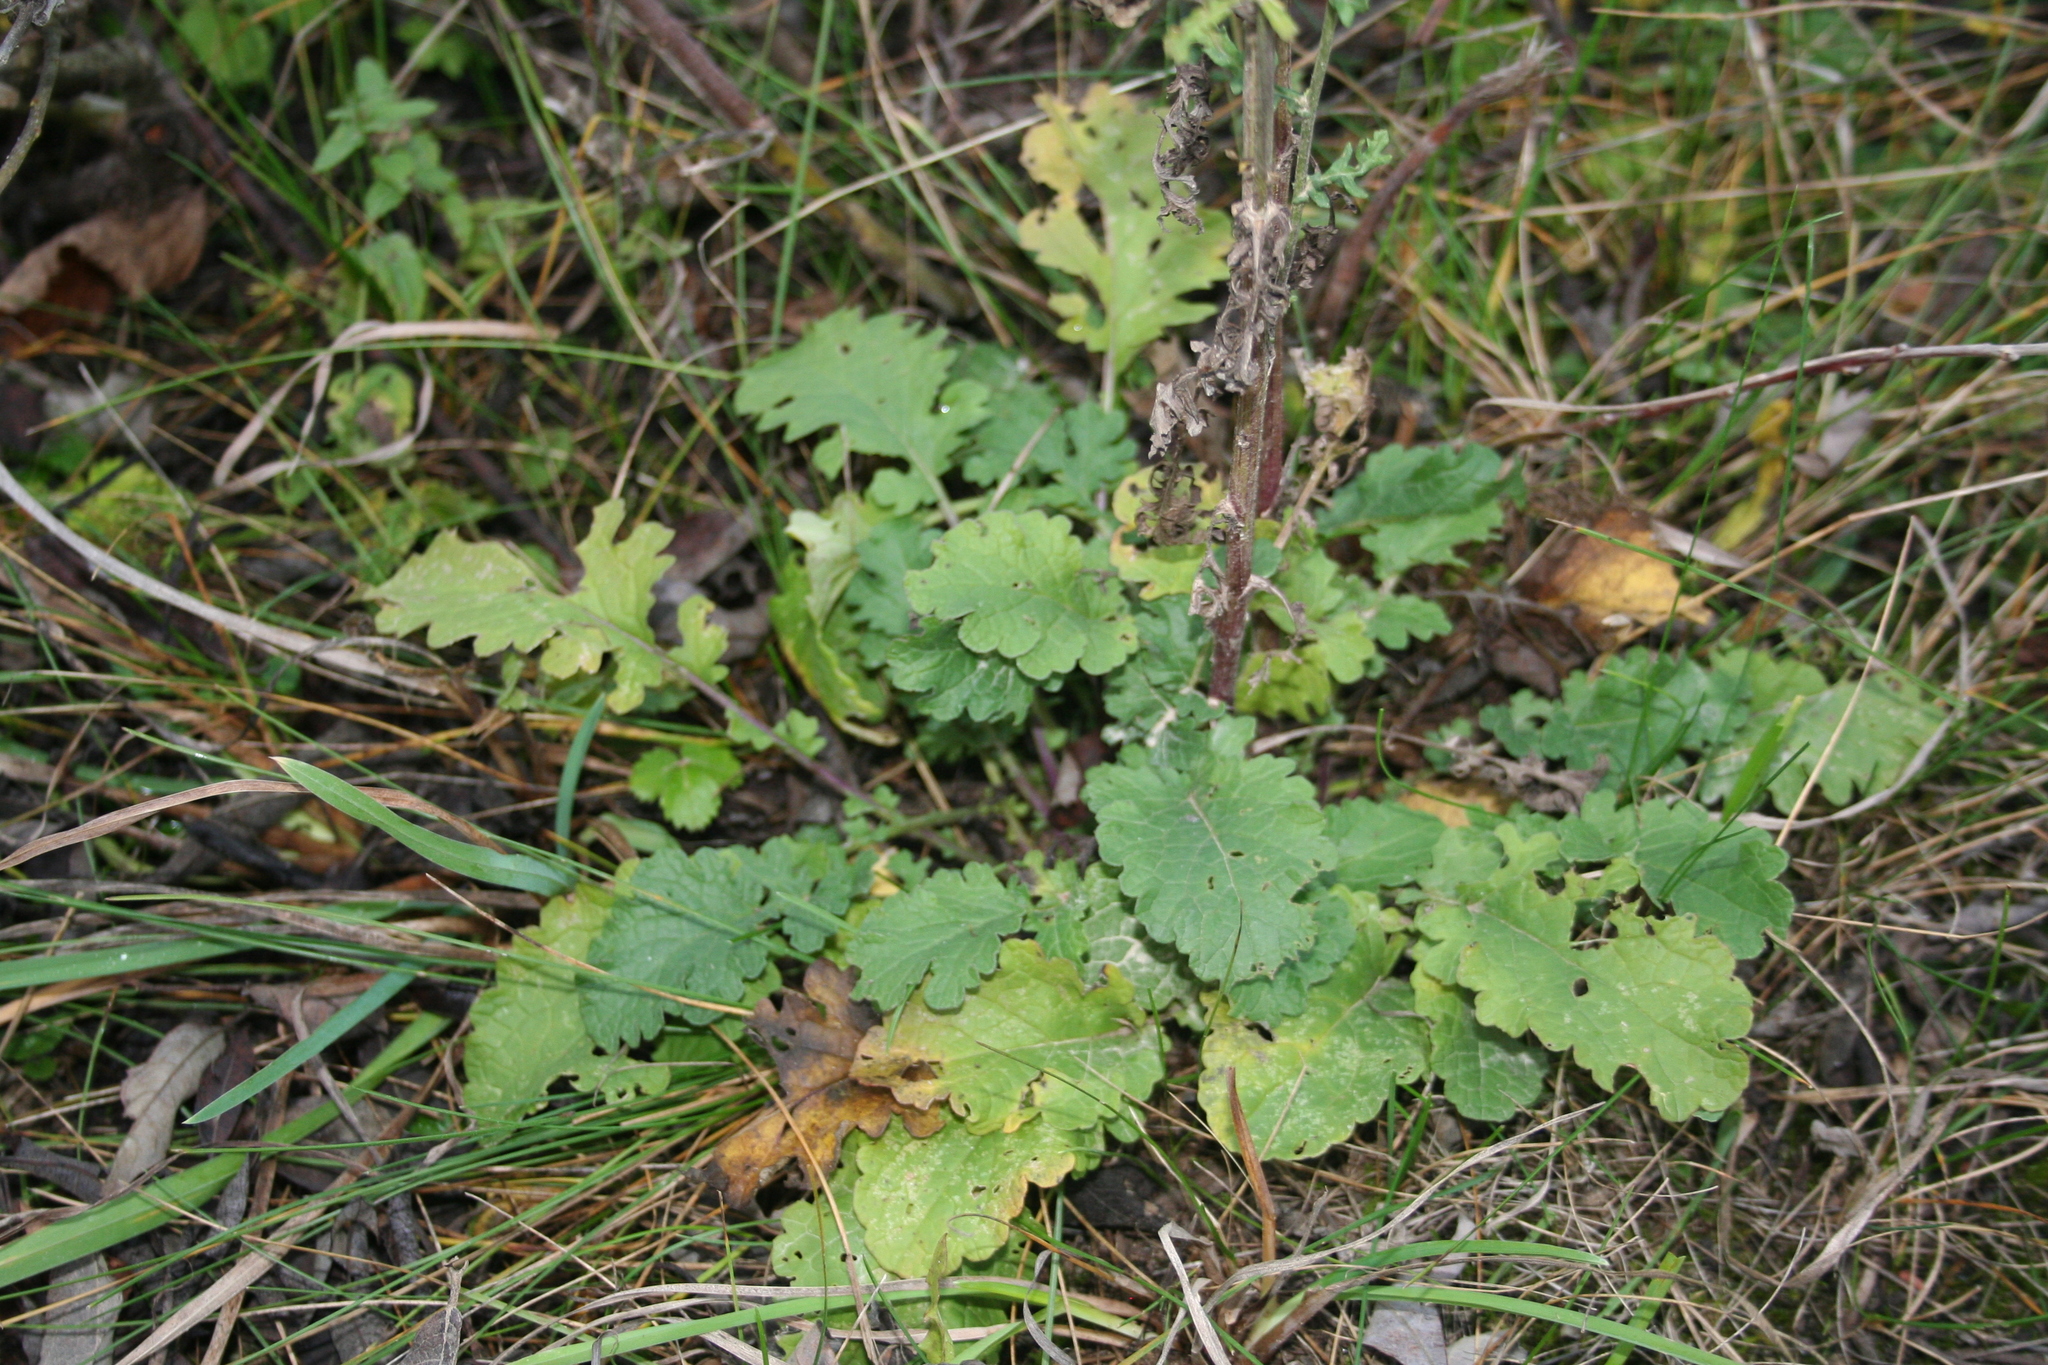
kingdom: Plantae
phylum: Tracheophyta
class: Magnoliopsida
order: Asterales
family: Asteraceae
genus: Jacobaea
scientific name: Jacobaea vulgaris
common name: Stinking willie
